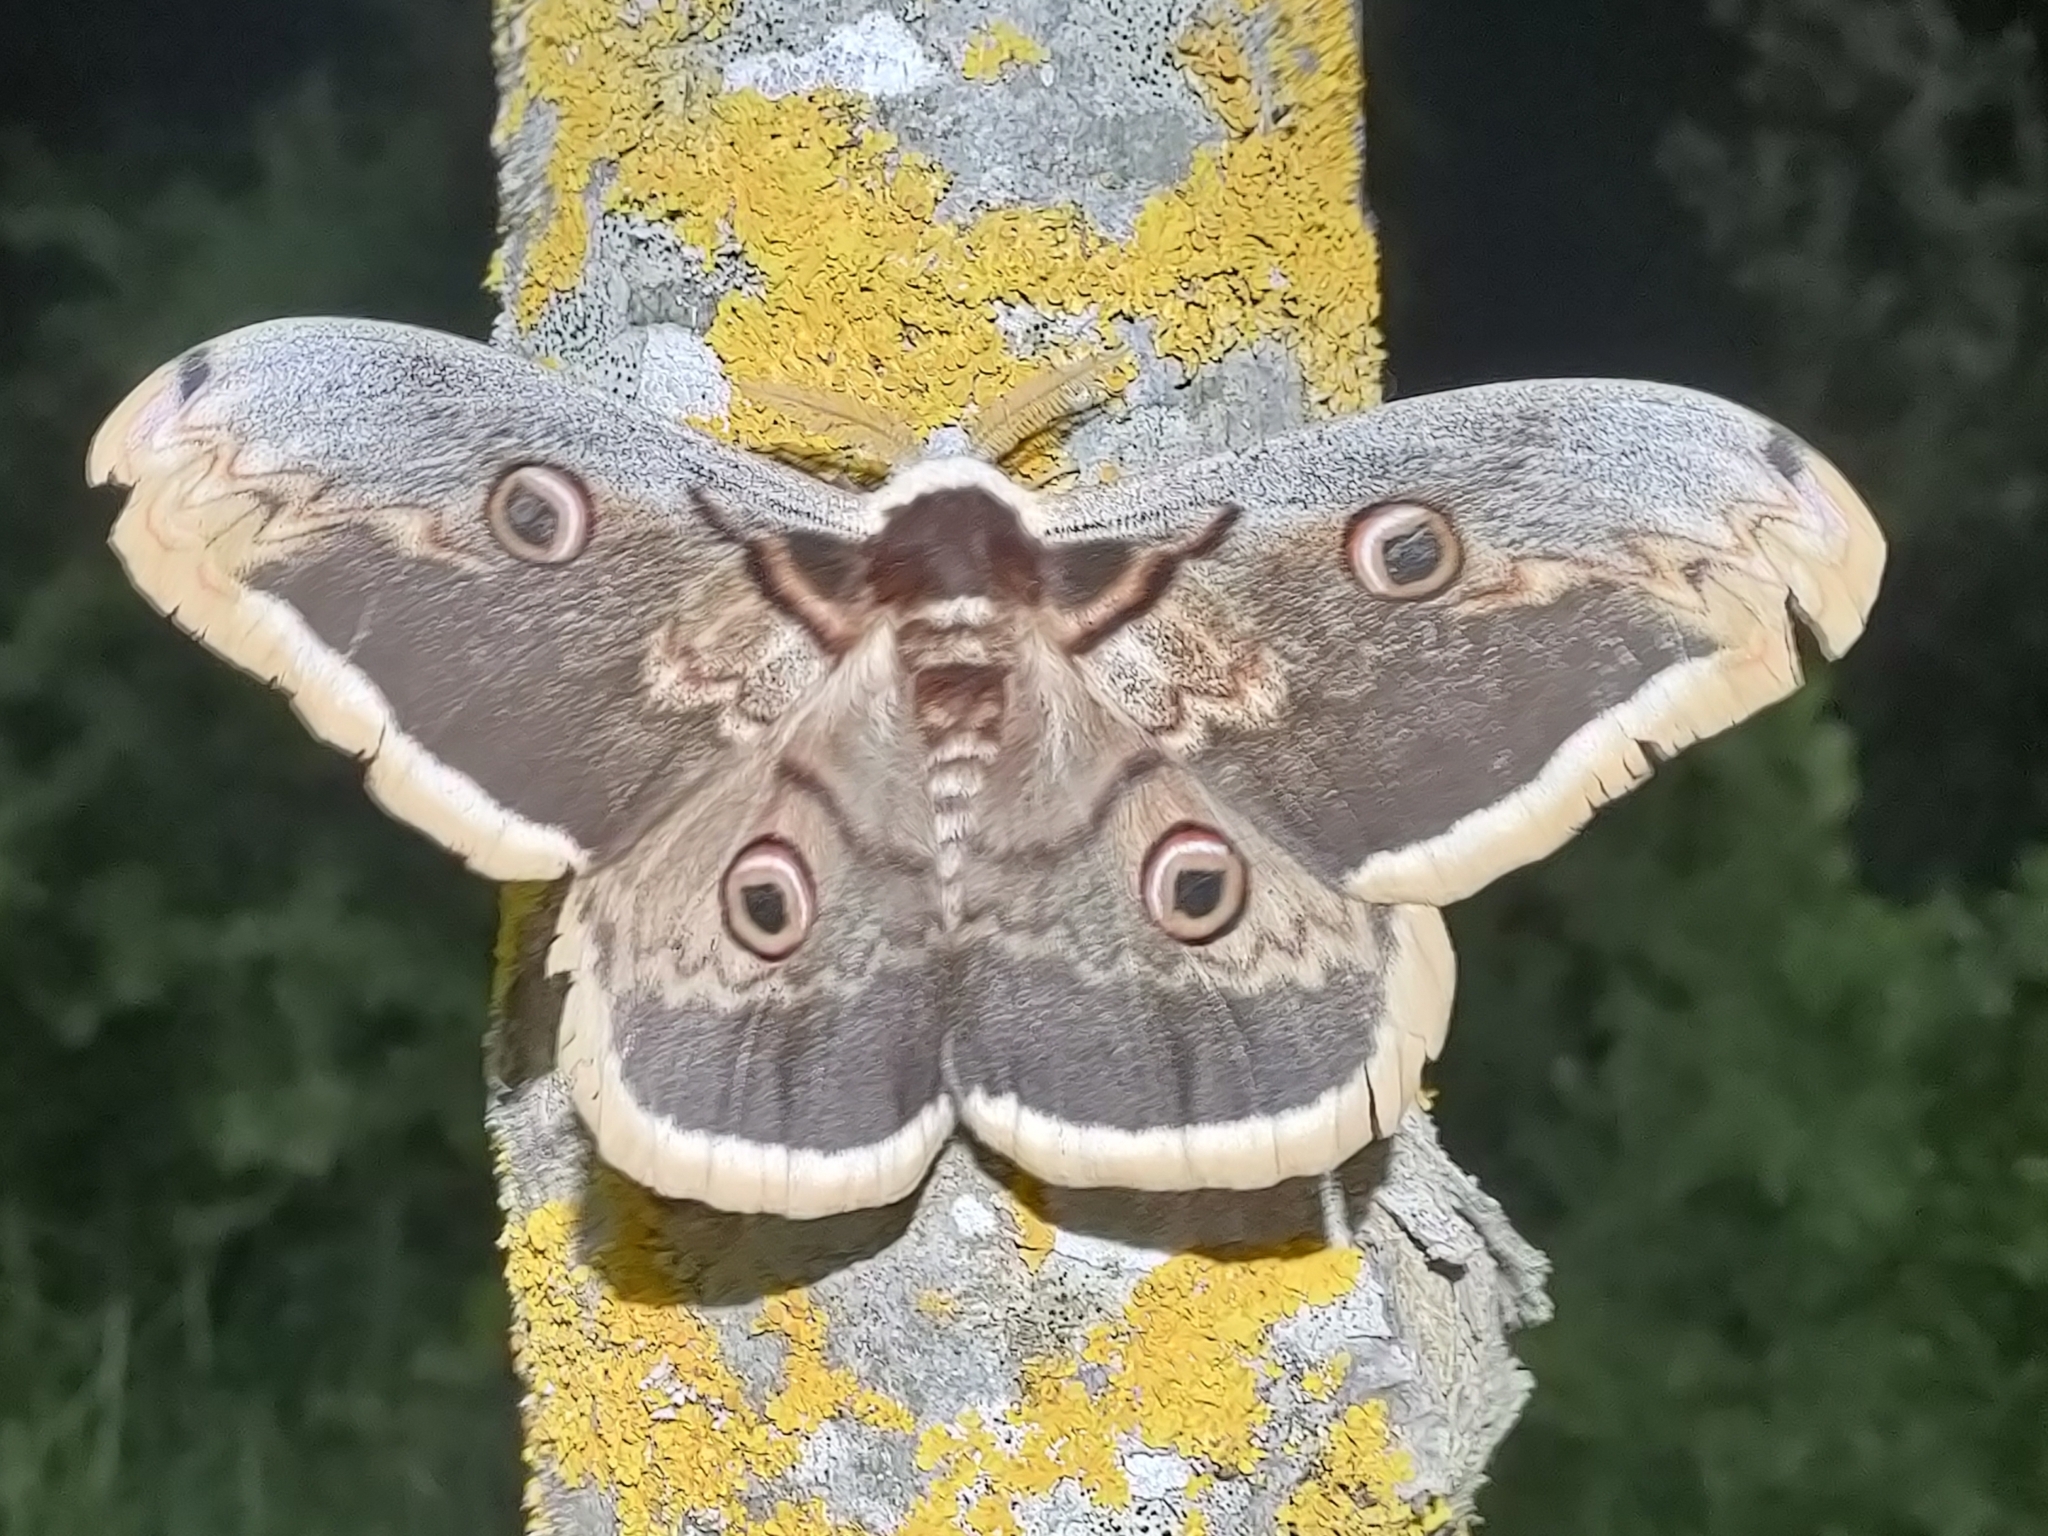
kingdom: Animalia
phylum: Arthropoda
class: Insecta
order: Lepidoptera
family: Saturniidae
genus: Saturnia
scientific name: Saturnia pyri
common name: Great peacock moth
